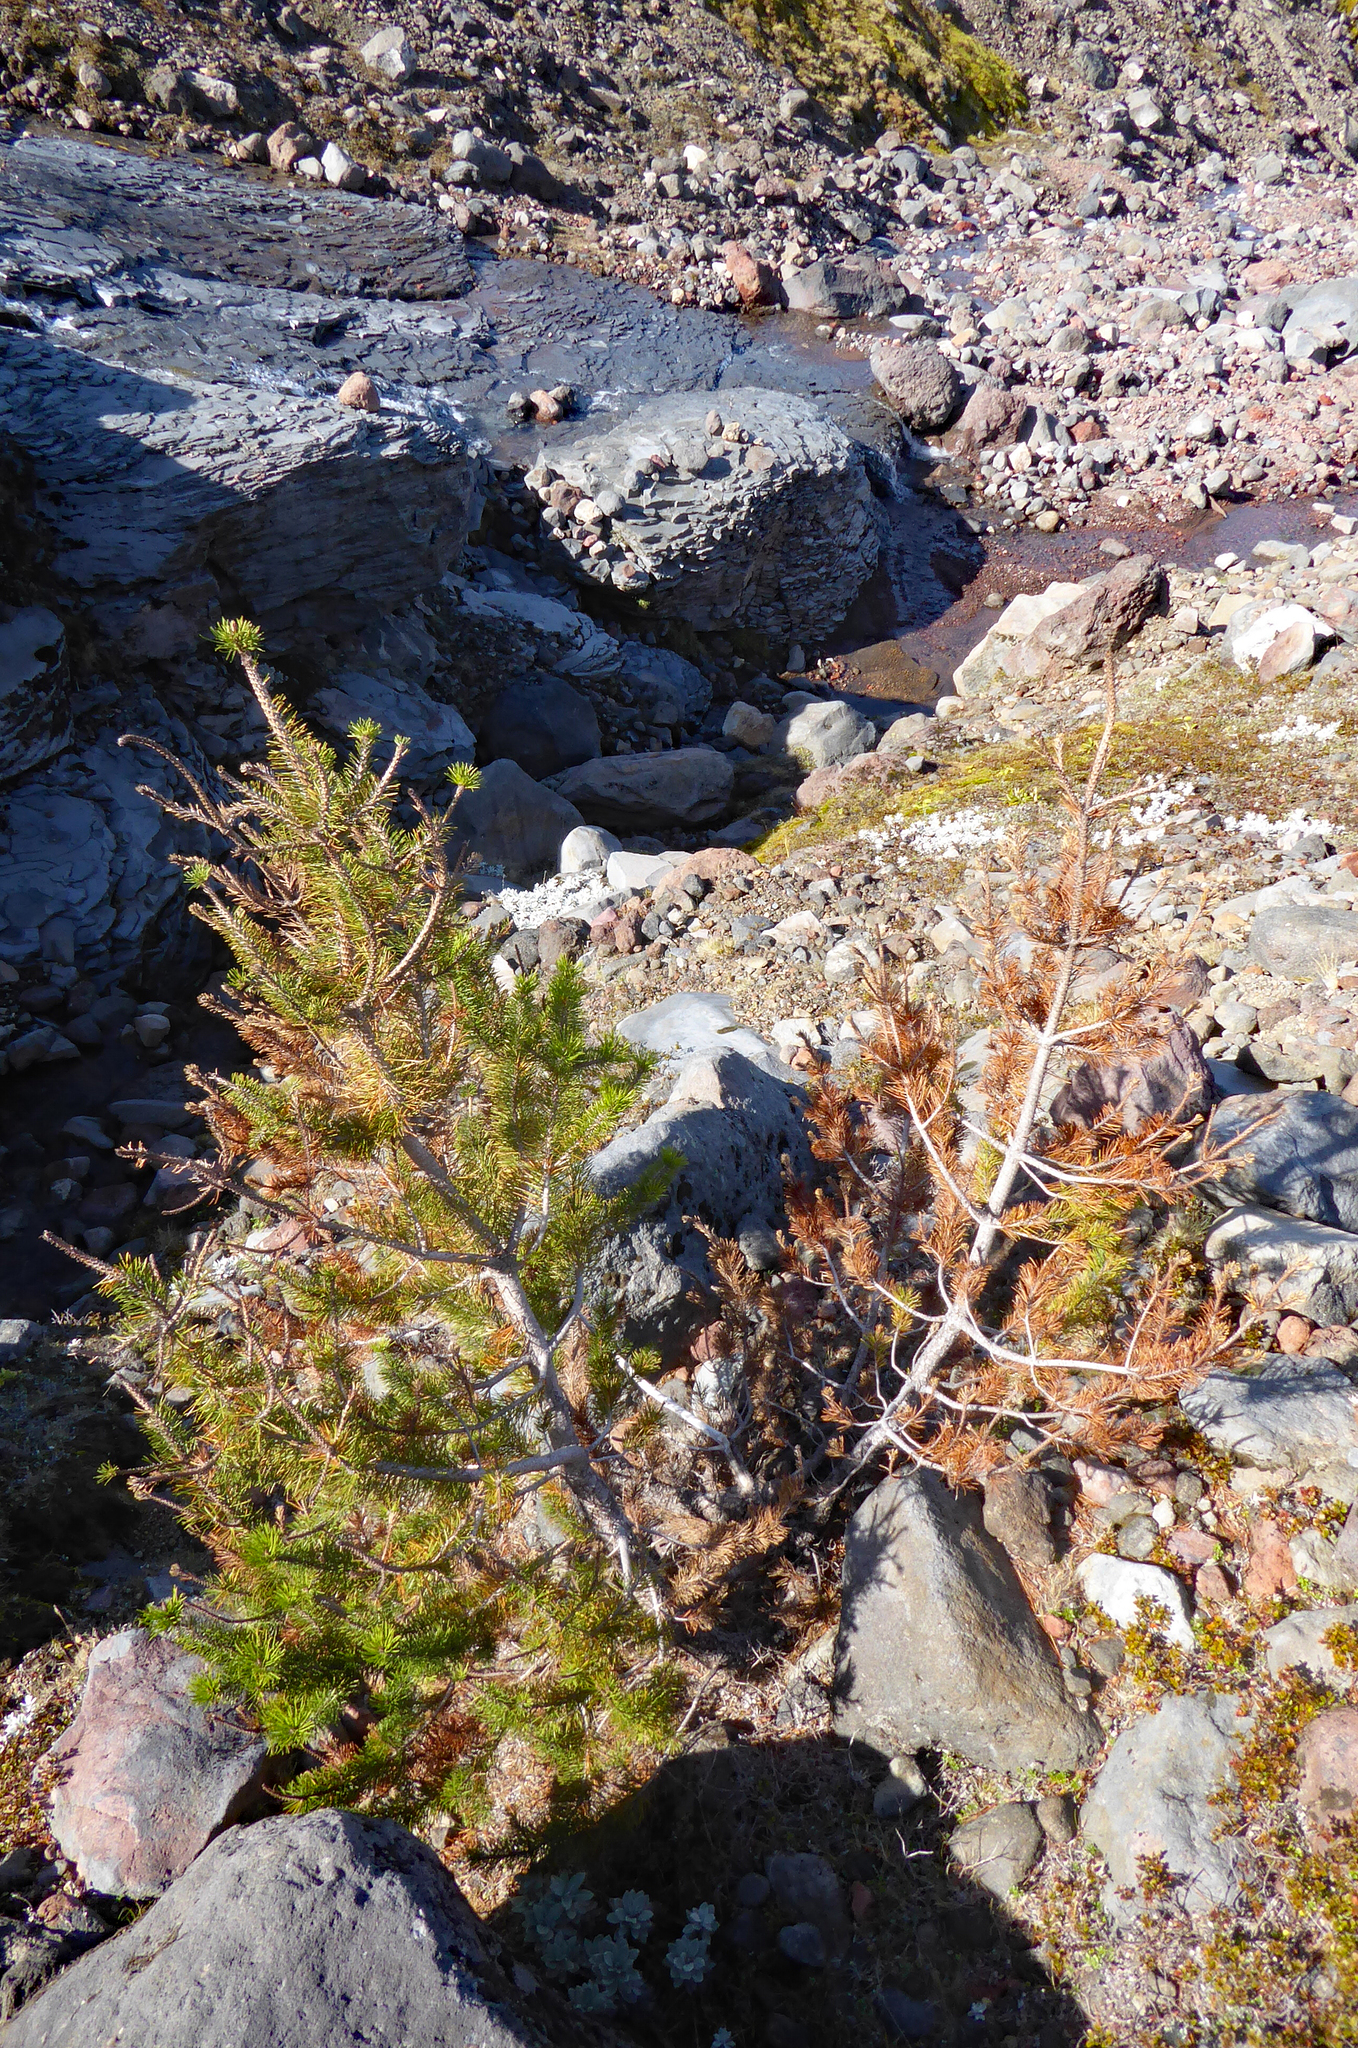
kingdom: Plantae
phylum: Tracheophyta
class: Pinopsida
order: Pinales
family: Pinaceae
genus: Pinus
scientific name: Pinus contorta
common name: Lodgepole pine
